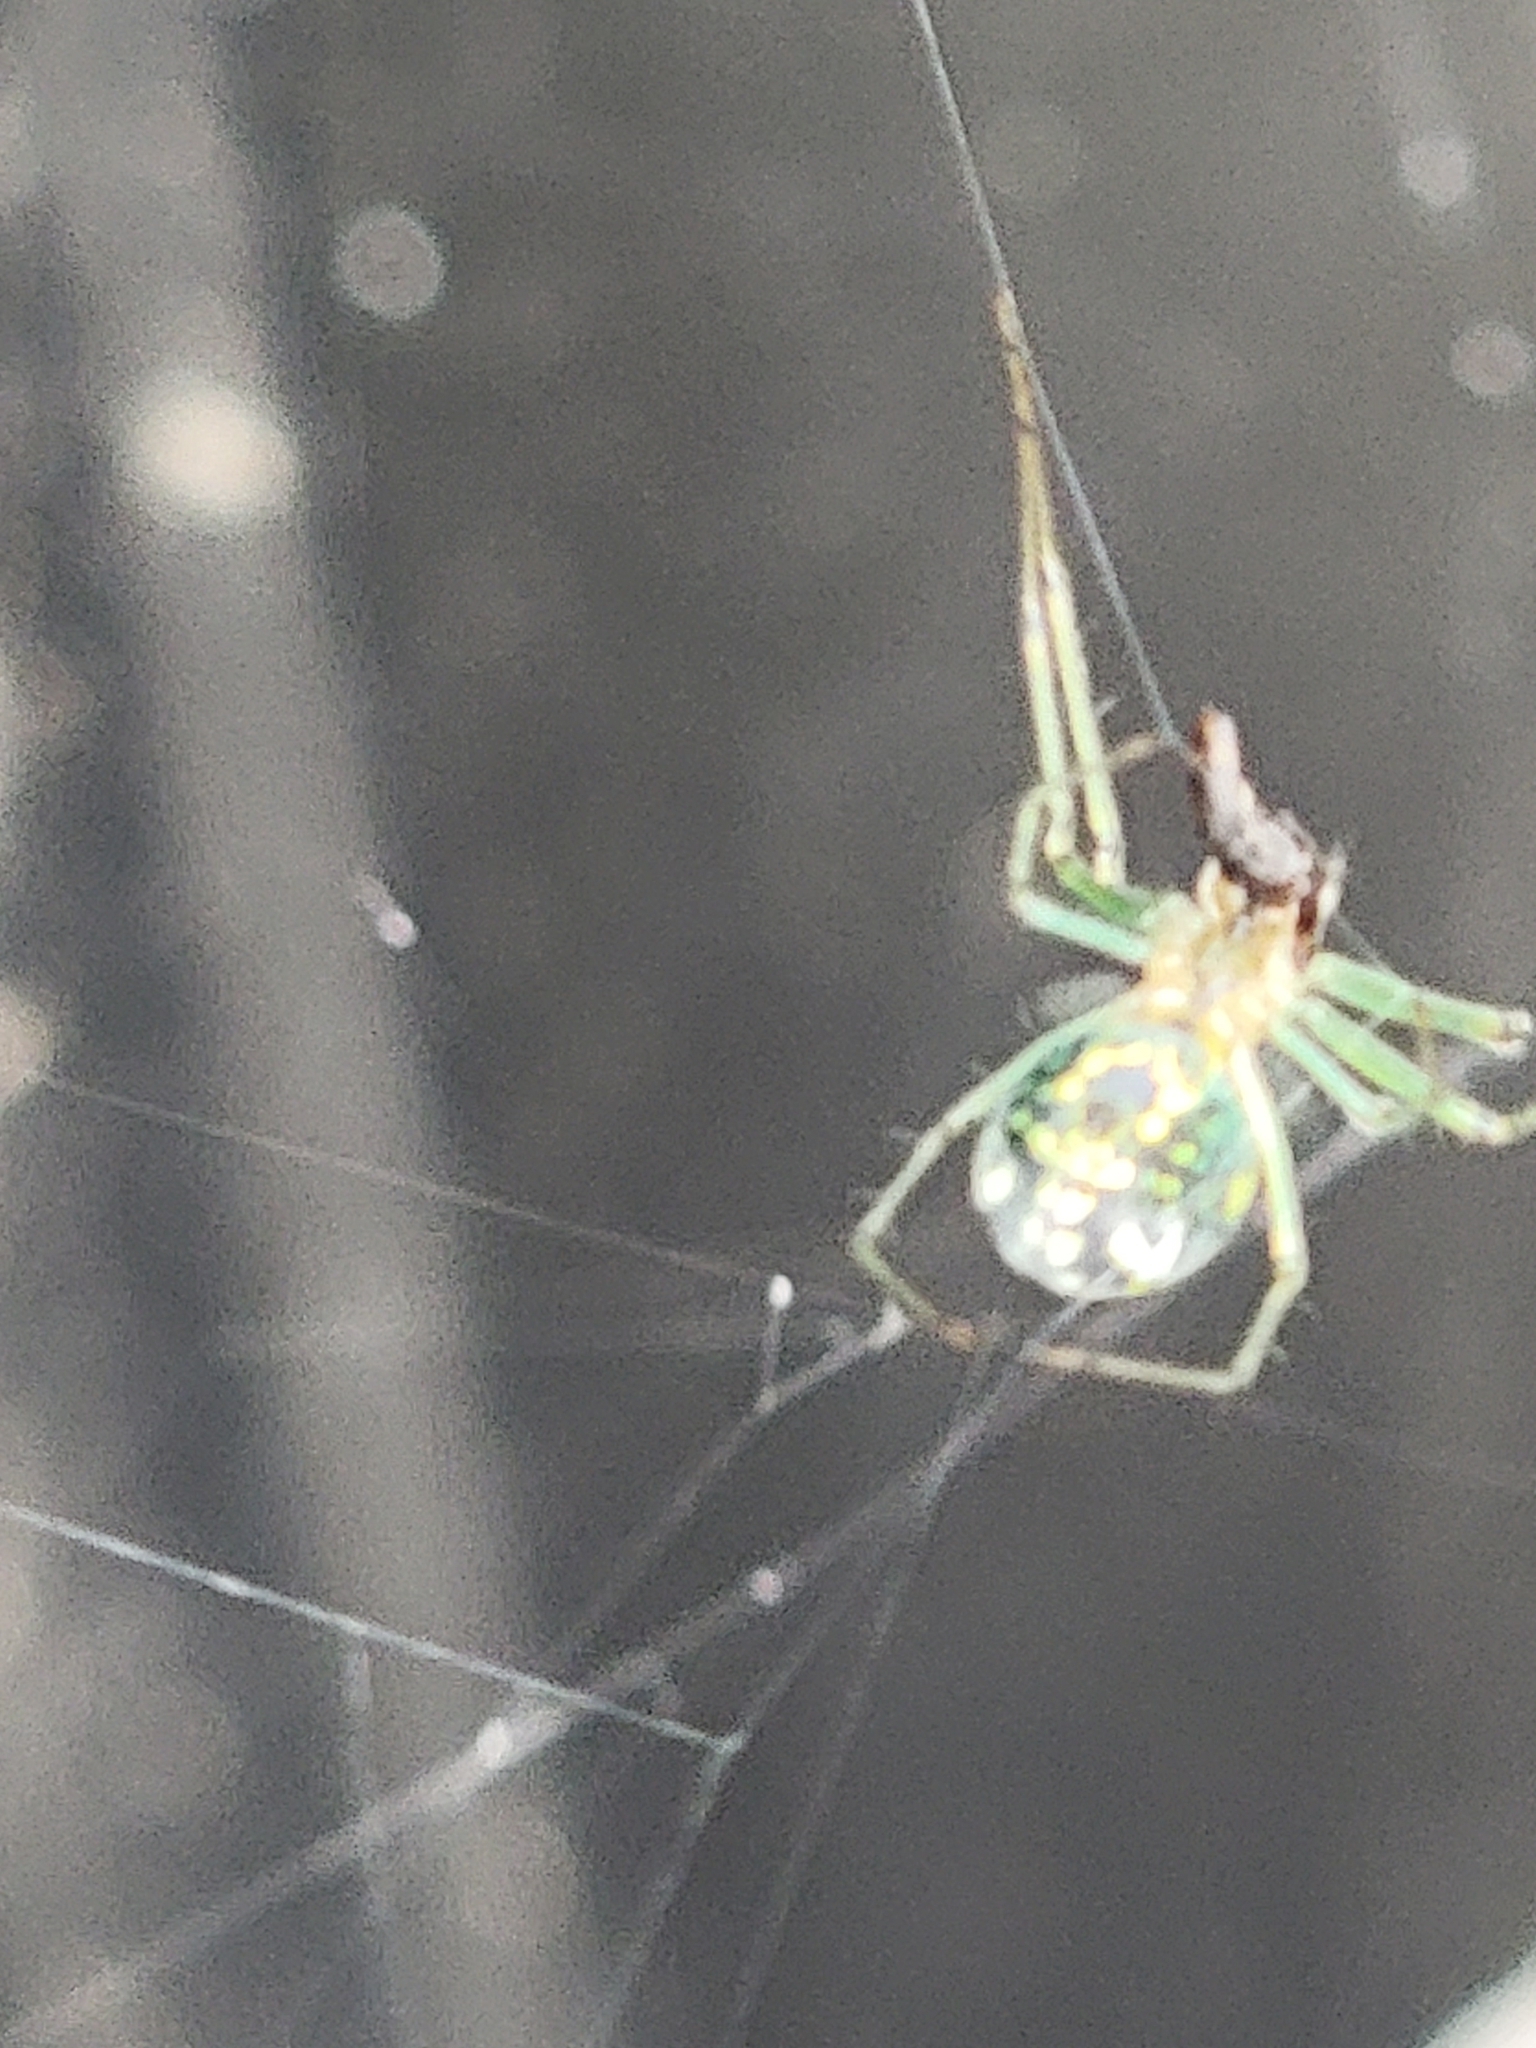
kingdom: Animalia
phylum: Arthropoda
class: Arachnida
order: Araneae
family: Tetragnathidae
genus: Leucauge
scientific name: Leucauge venusta
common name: Longjawed orb weavers
